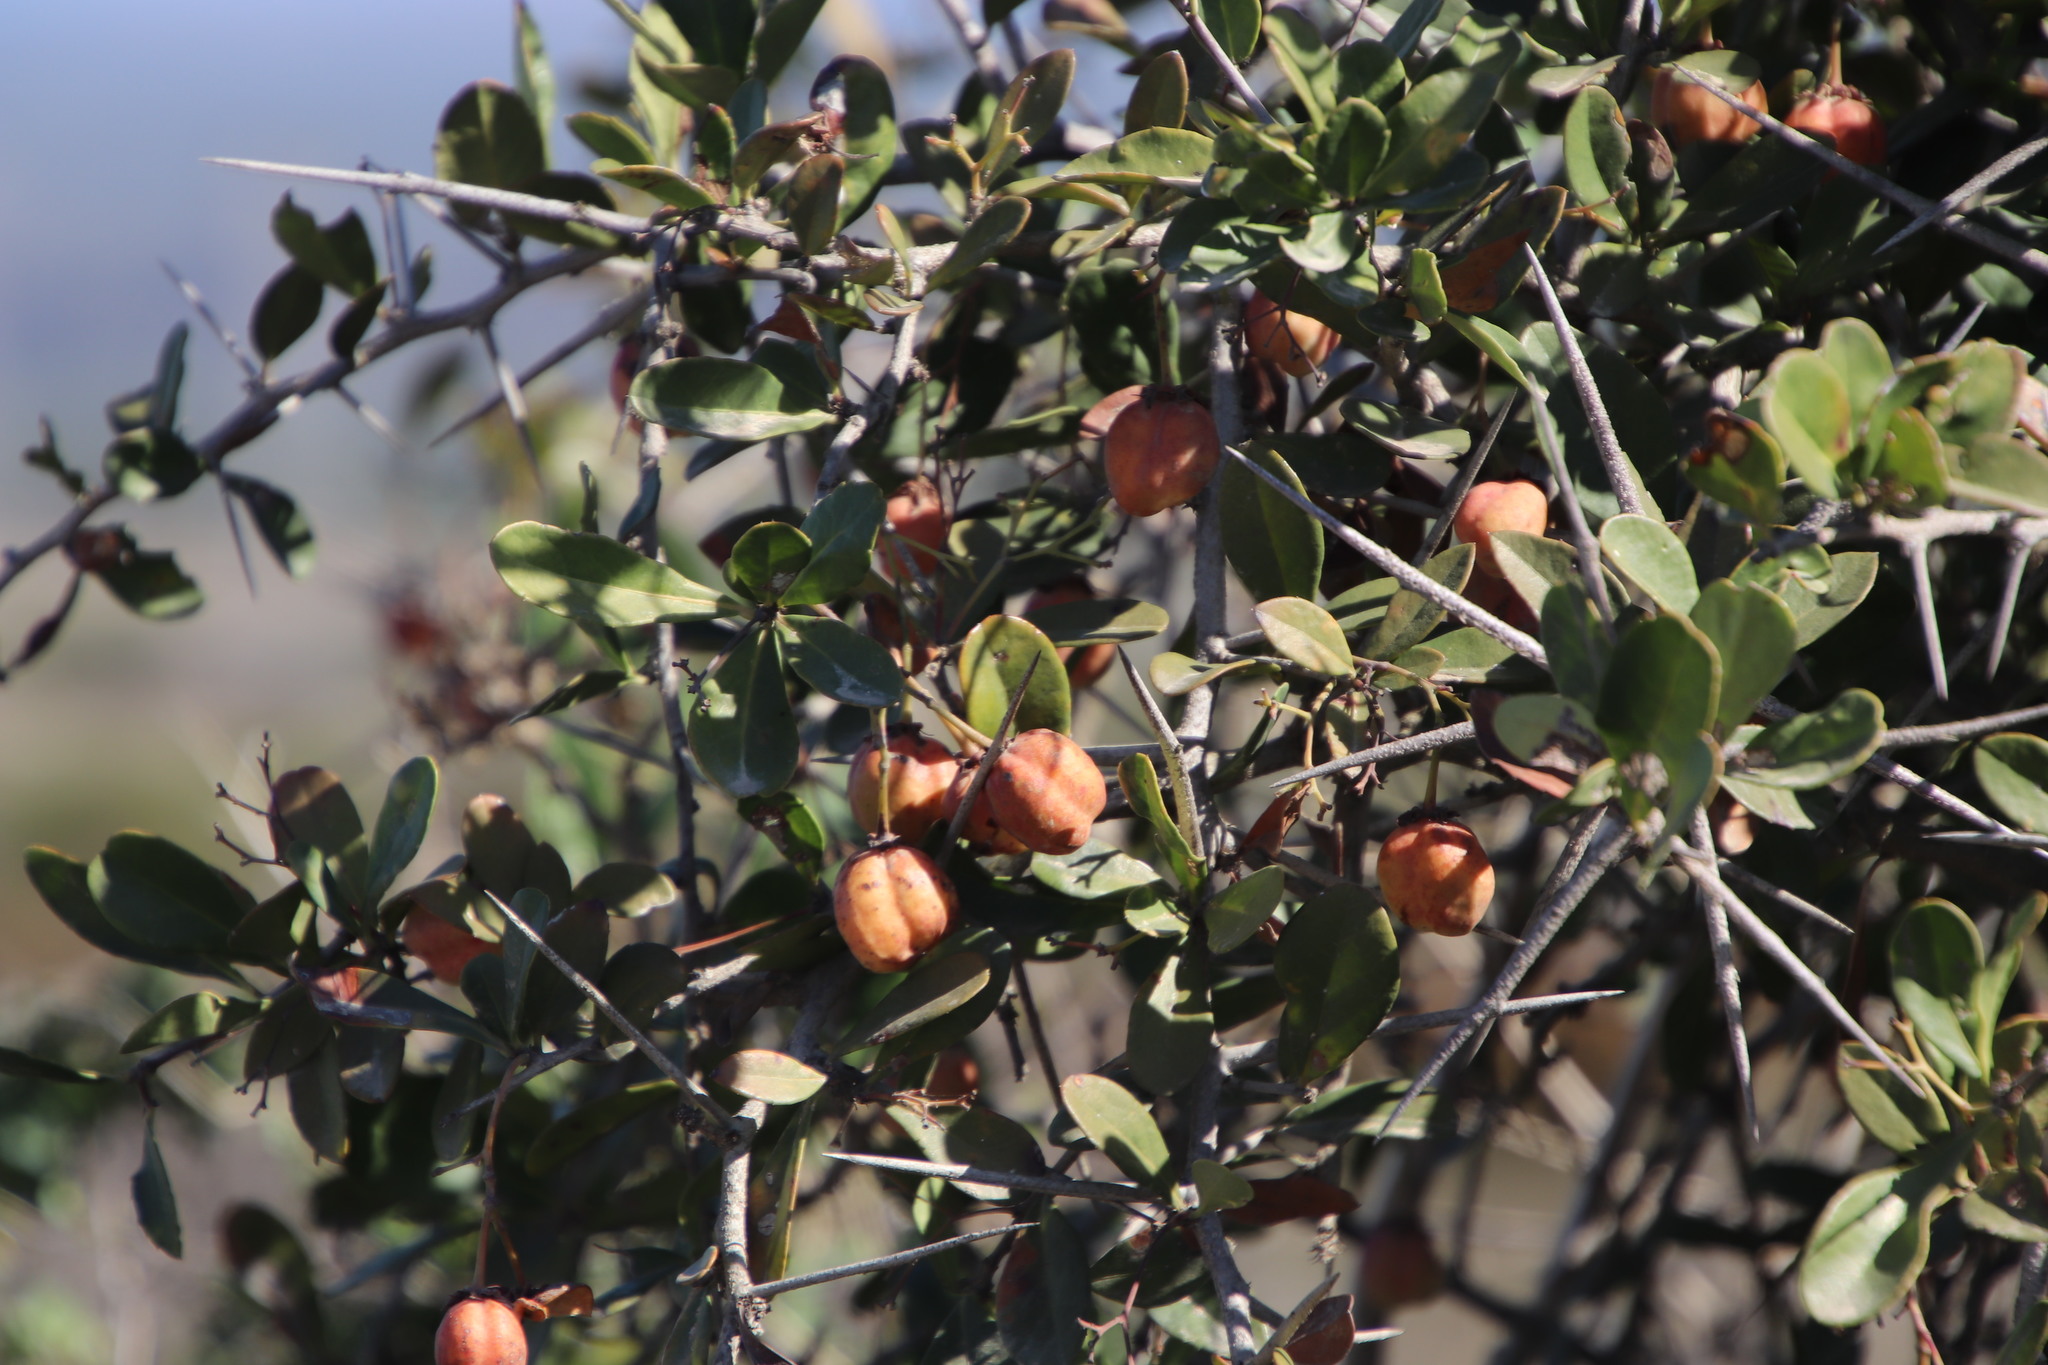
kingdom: Plantae
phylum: Tracheophyta
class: Magnoliopsida
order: Celastrales
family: Celastraceae
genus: Putterlickia
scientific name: Putterlickia pyracantha
